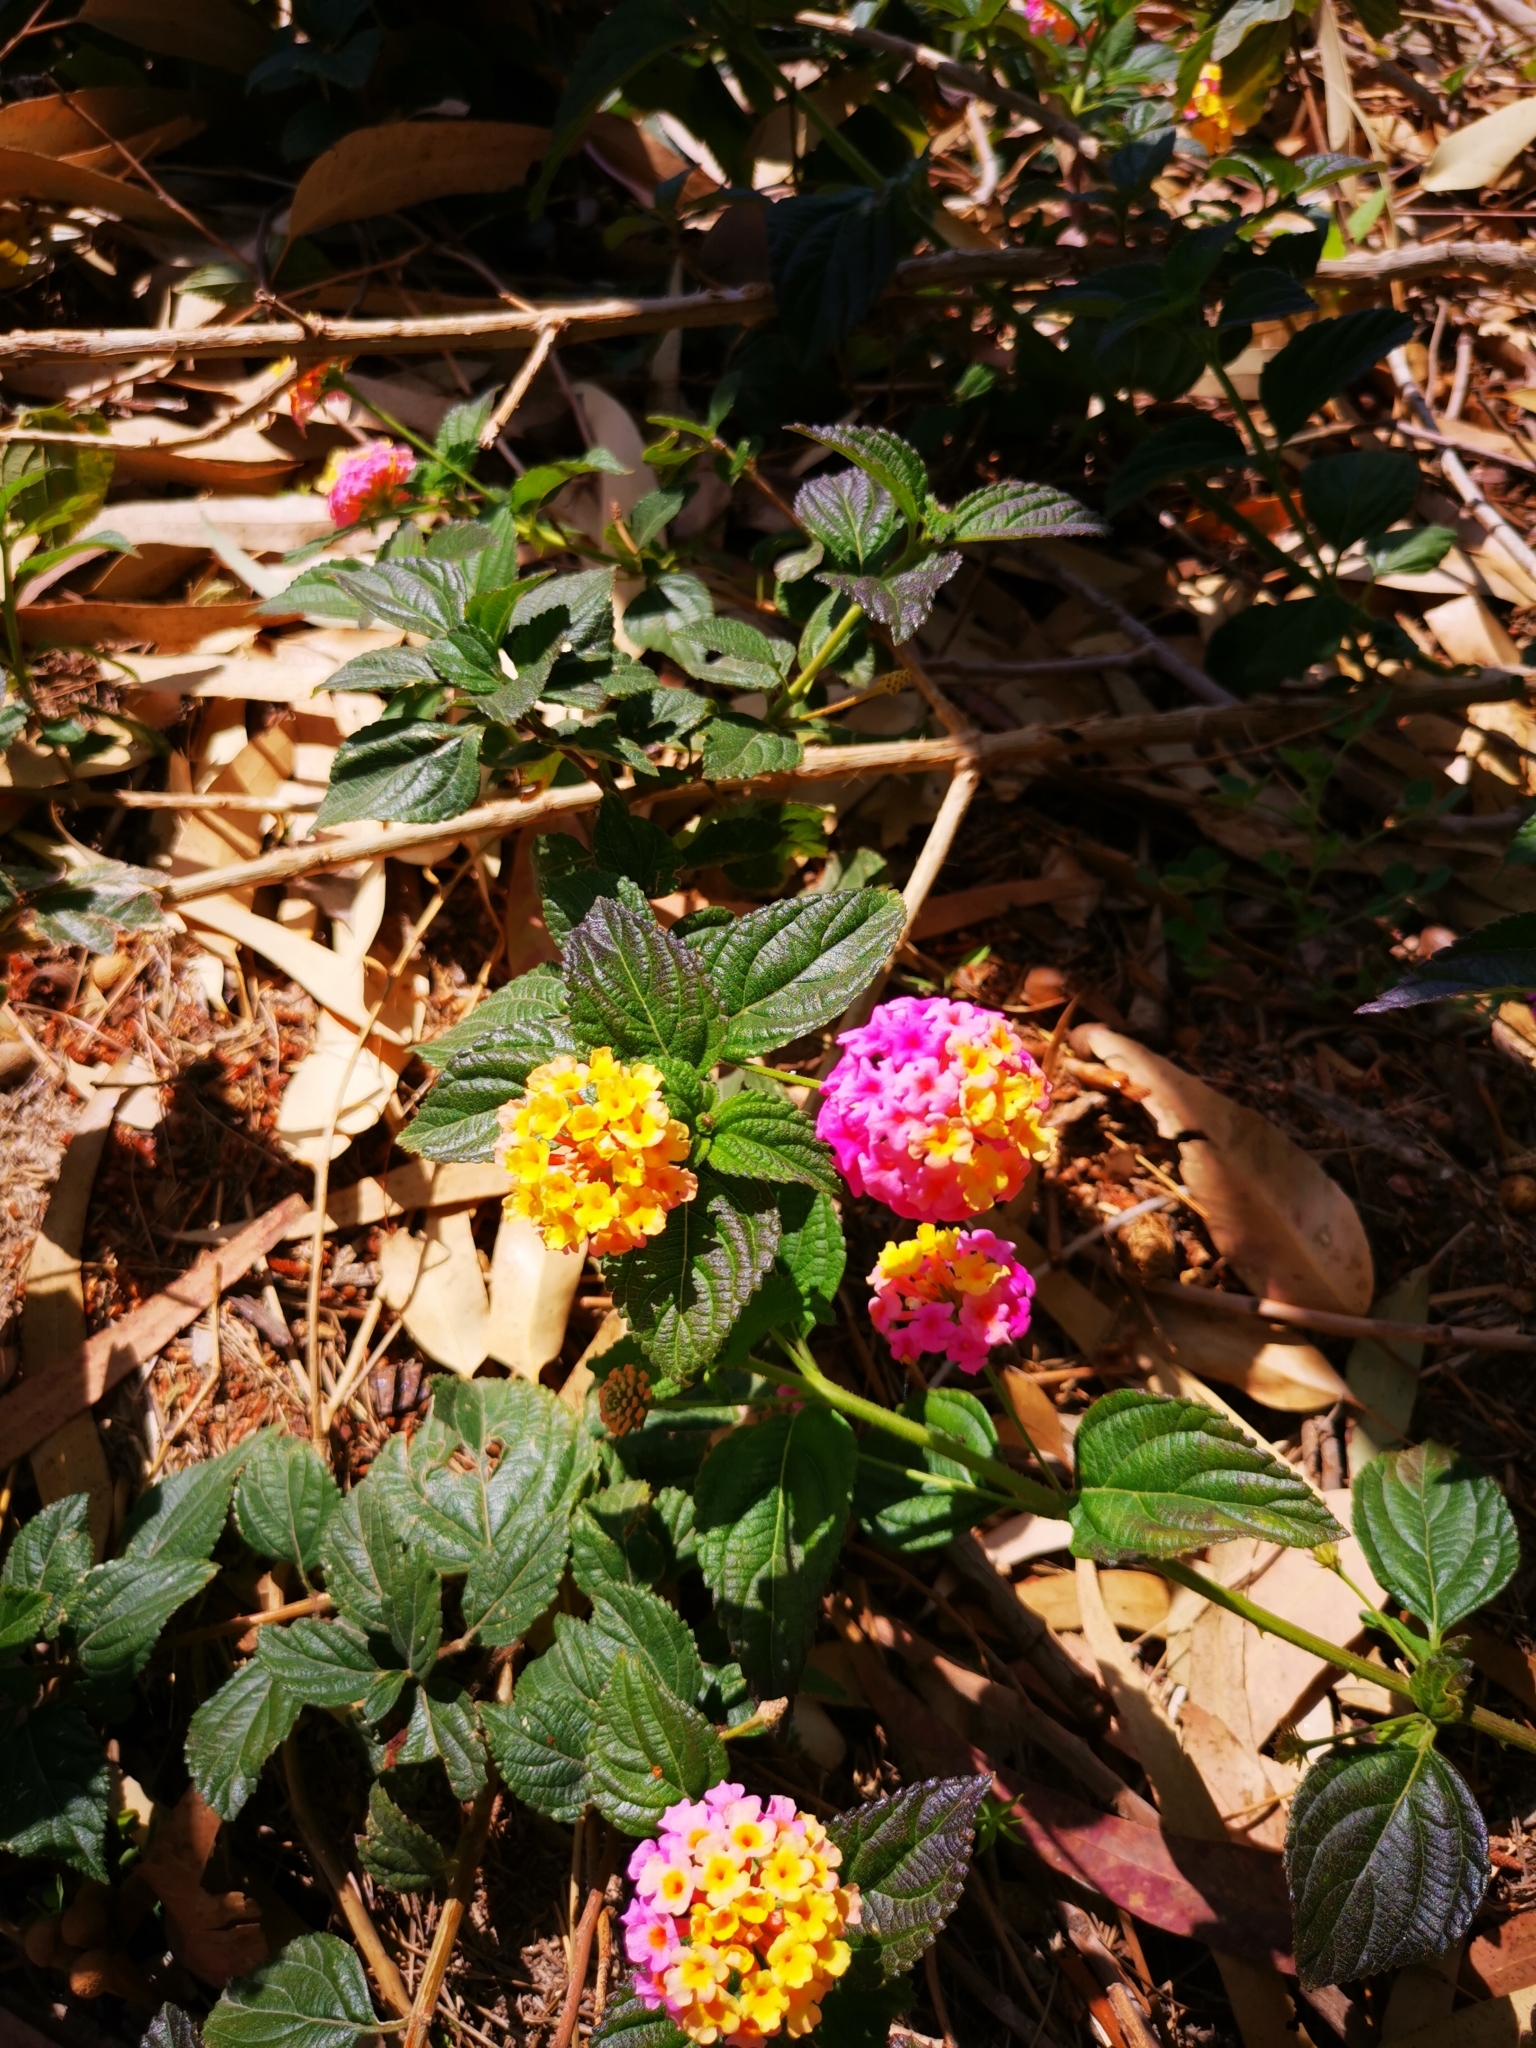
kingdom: Plantae
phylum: Tracheophyta
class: Magnoliopsida
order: Lamiales
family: Verbenaceae
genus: Lantana
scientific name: Lantana camara
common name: Lantana
